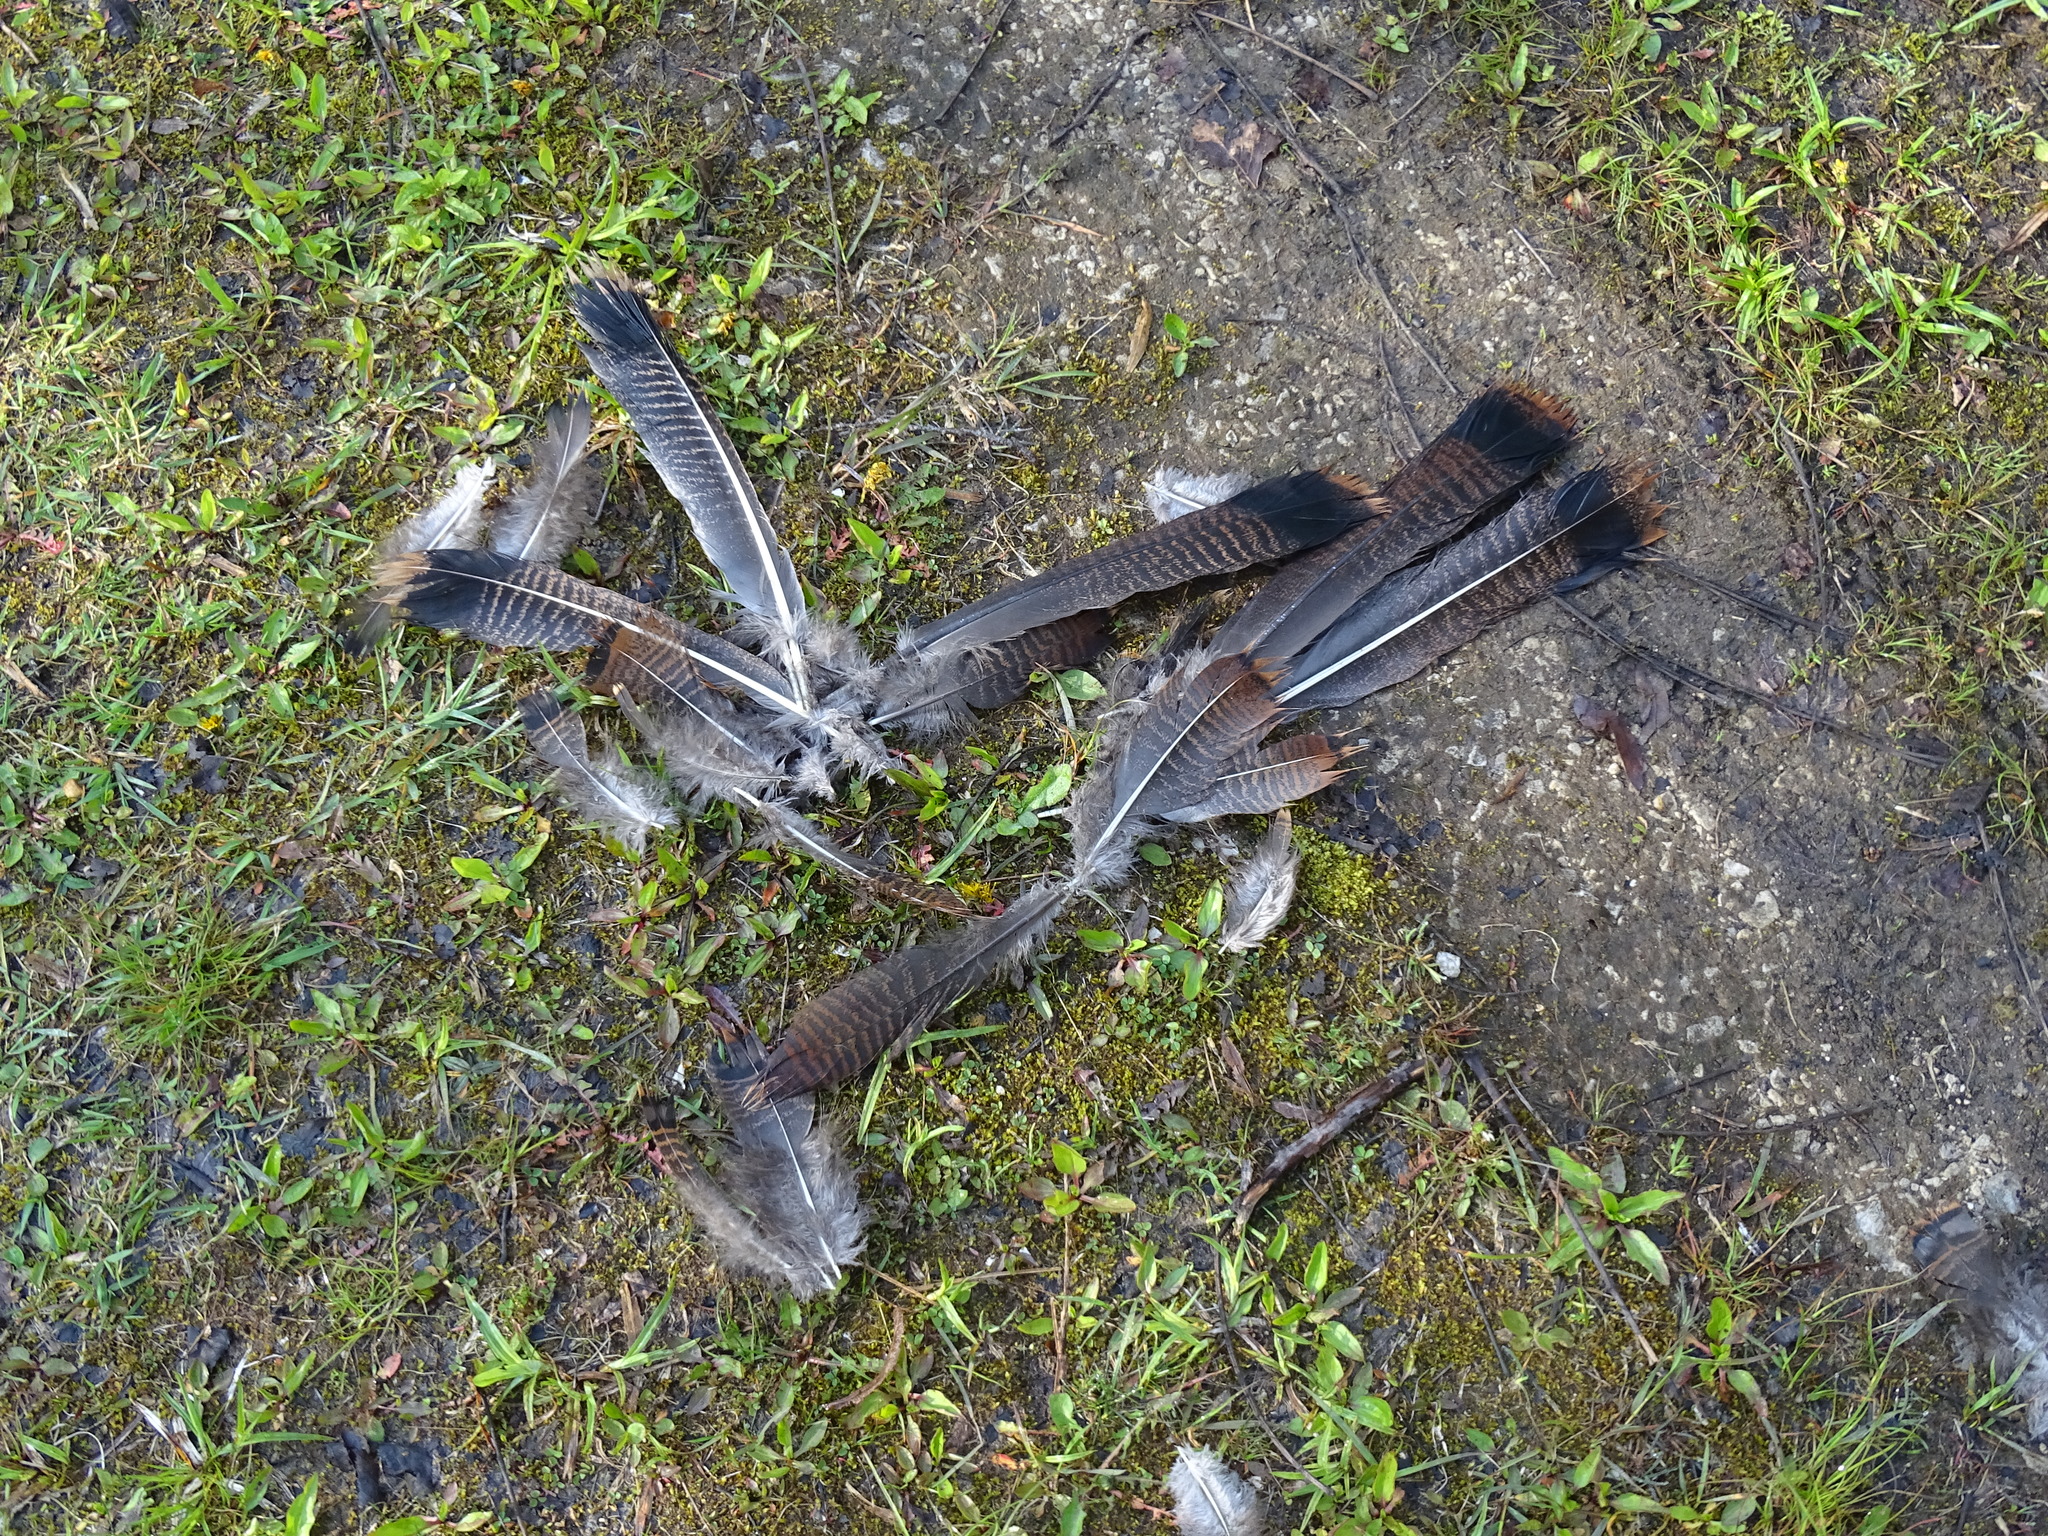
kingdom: Animalia
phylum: Chordata
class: Aves
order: Galliformes
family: Phasianidae
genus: Meleagris
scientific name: Meleagris gallopavo
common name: Wild turkey
